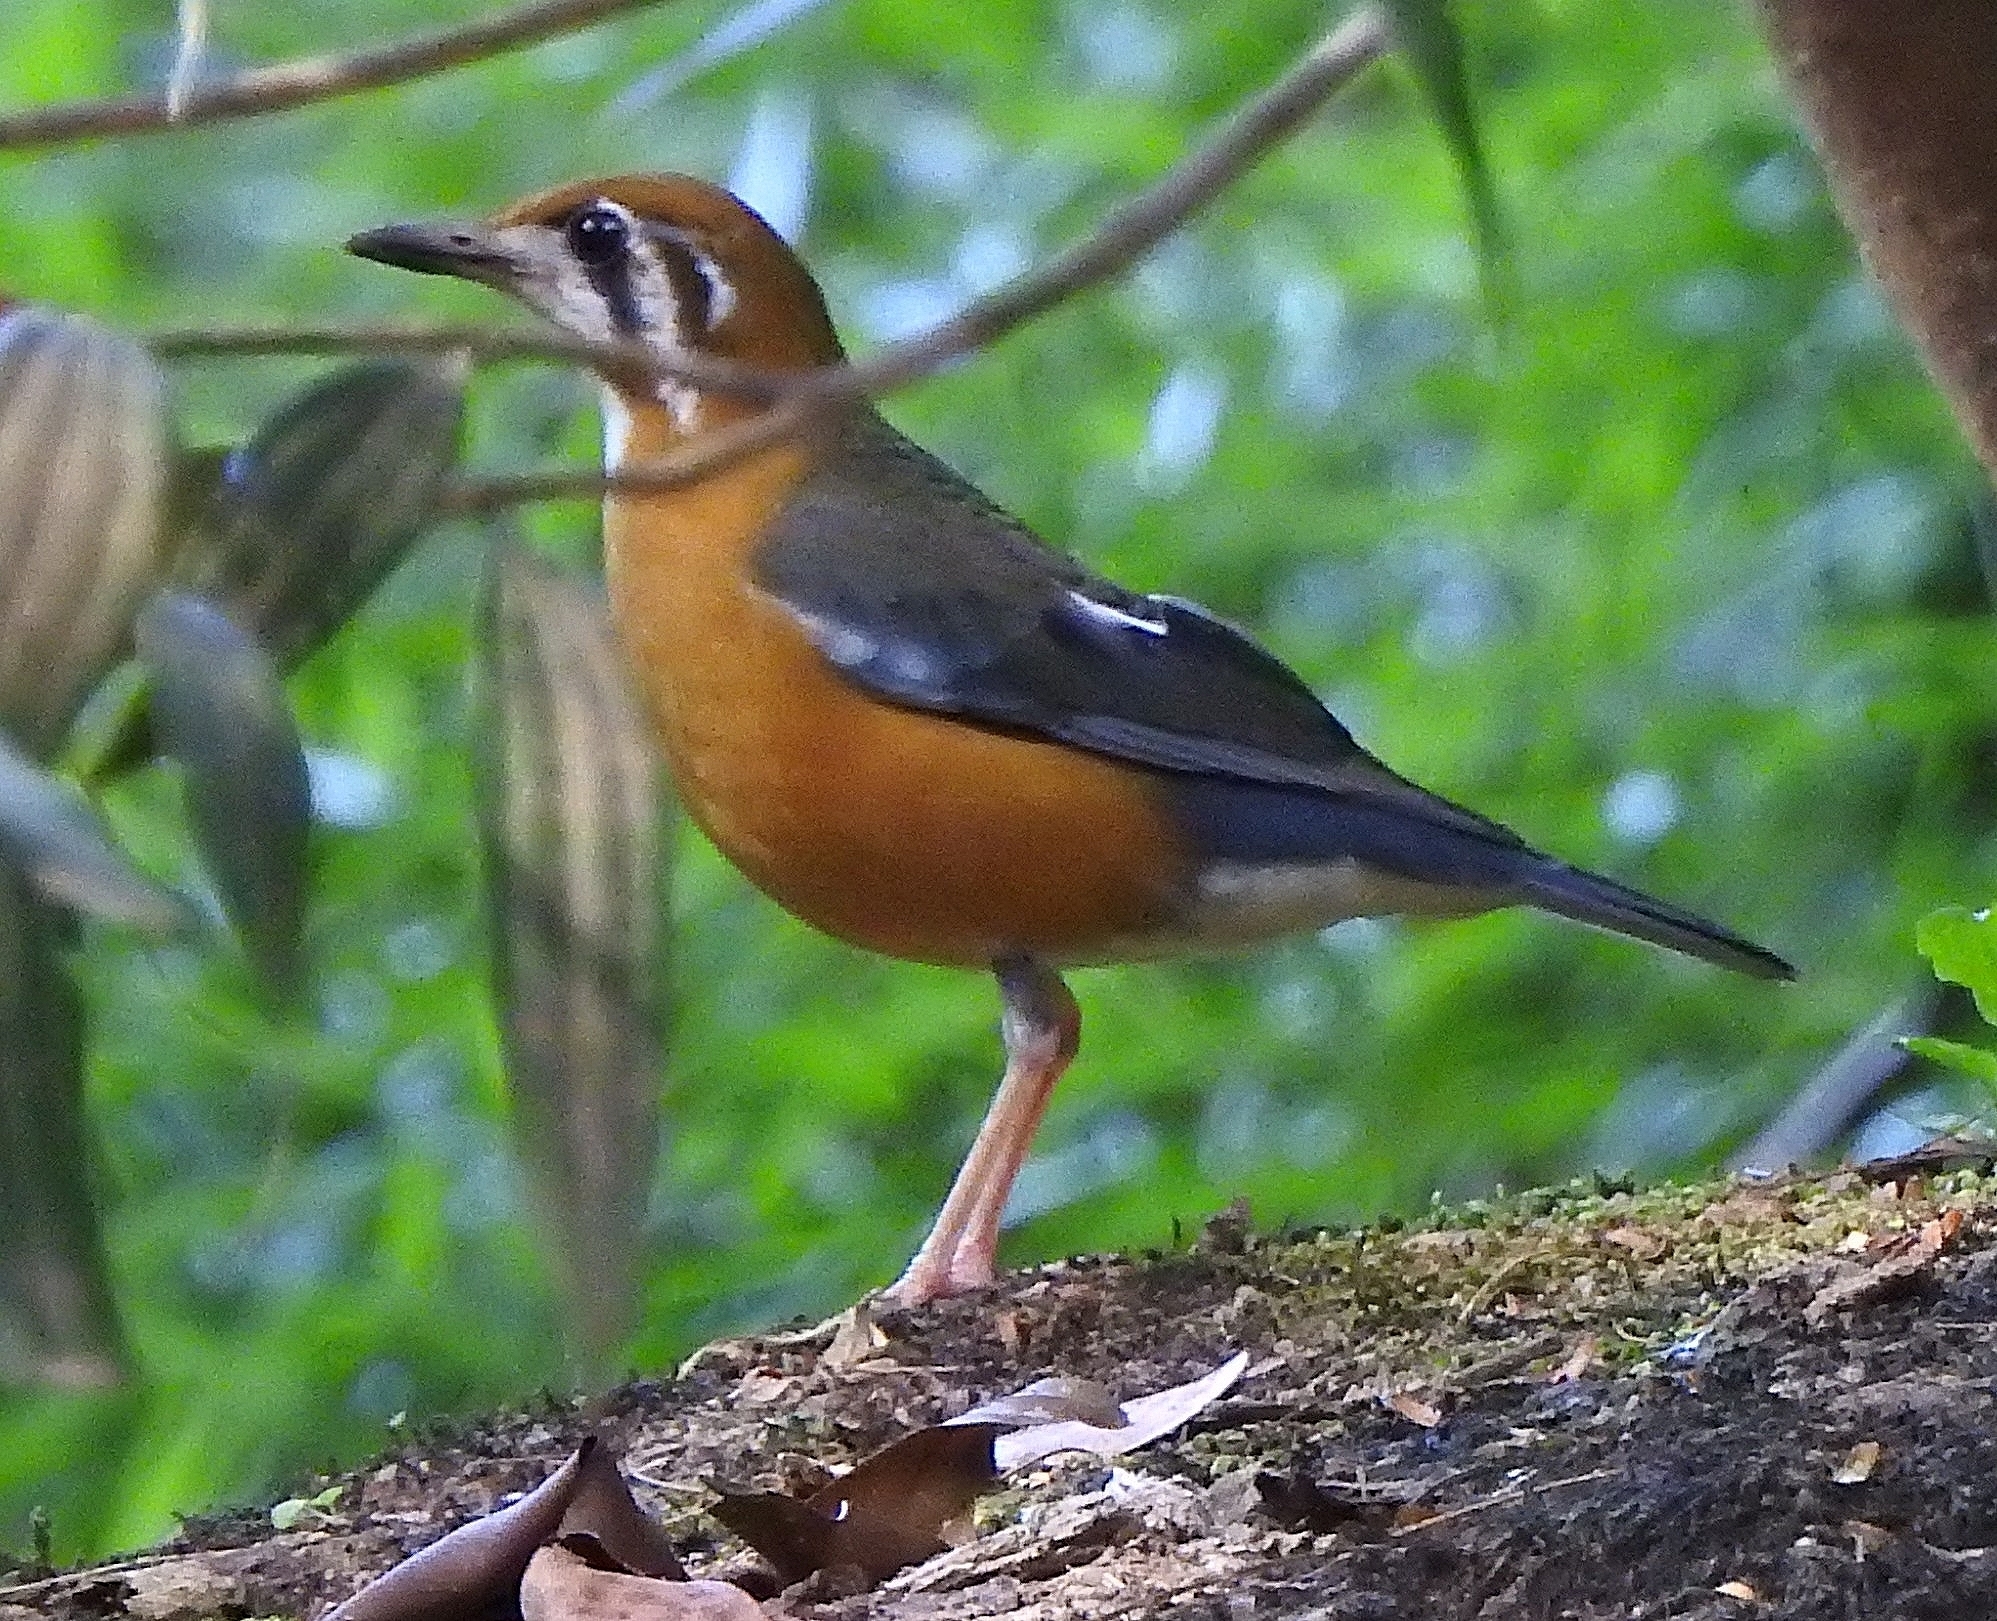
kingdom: Animalia
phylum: Chordata
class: Aves
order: Passeriformes
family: Turdidae
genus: Geokichla
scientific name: Geokichla citrina
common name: Orange-headed thrush
